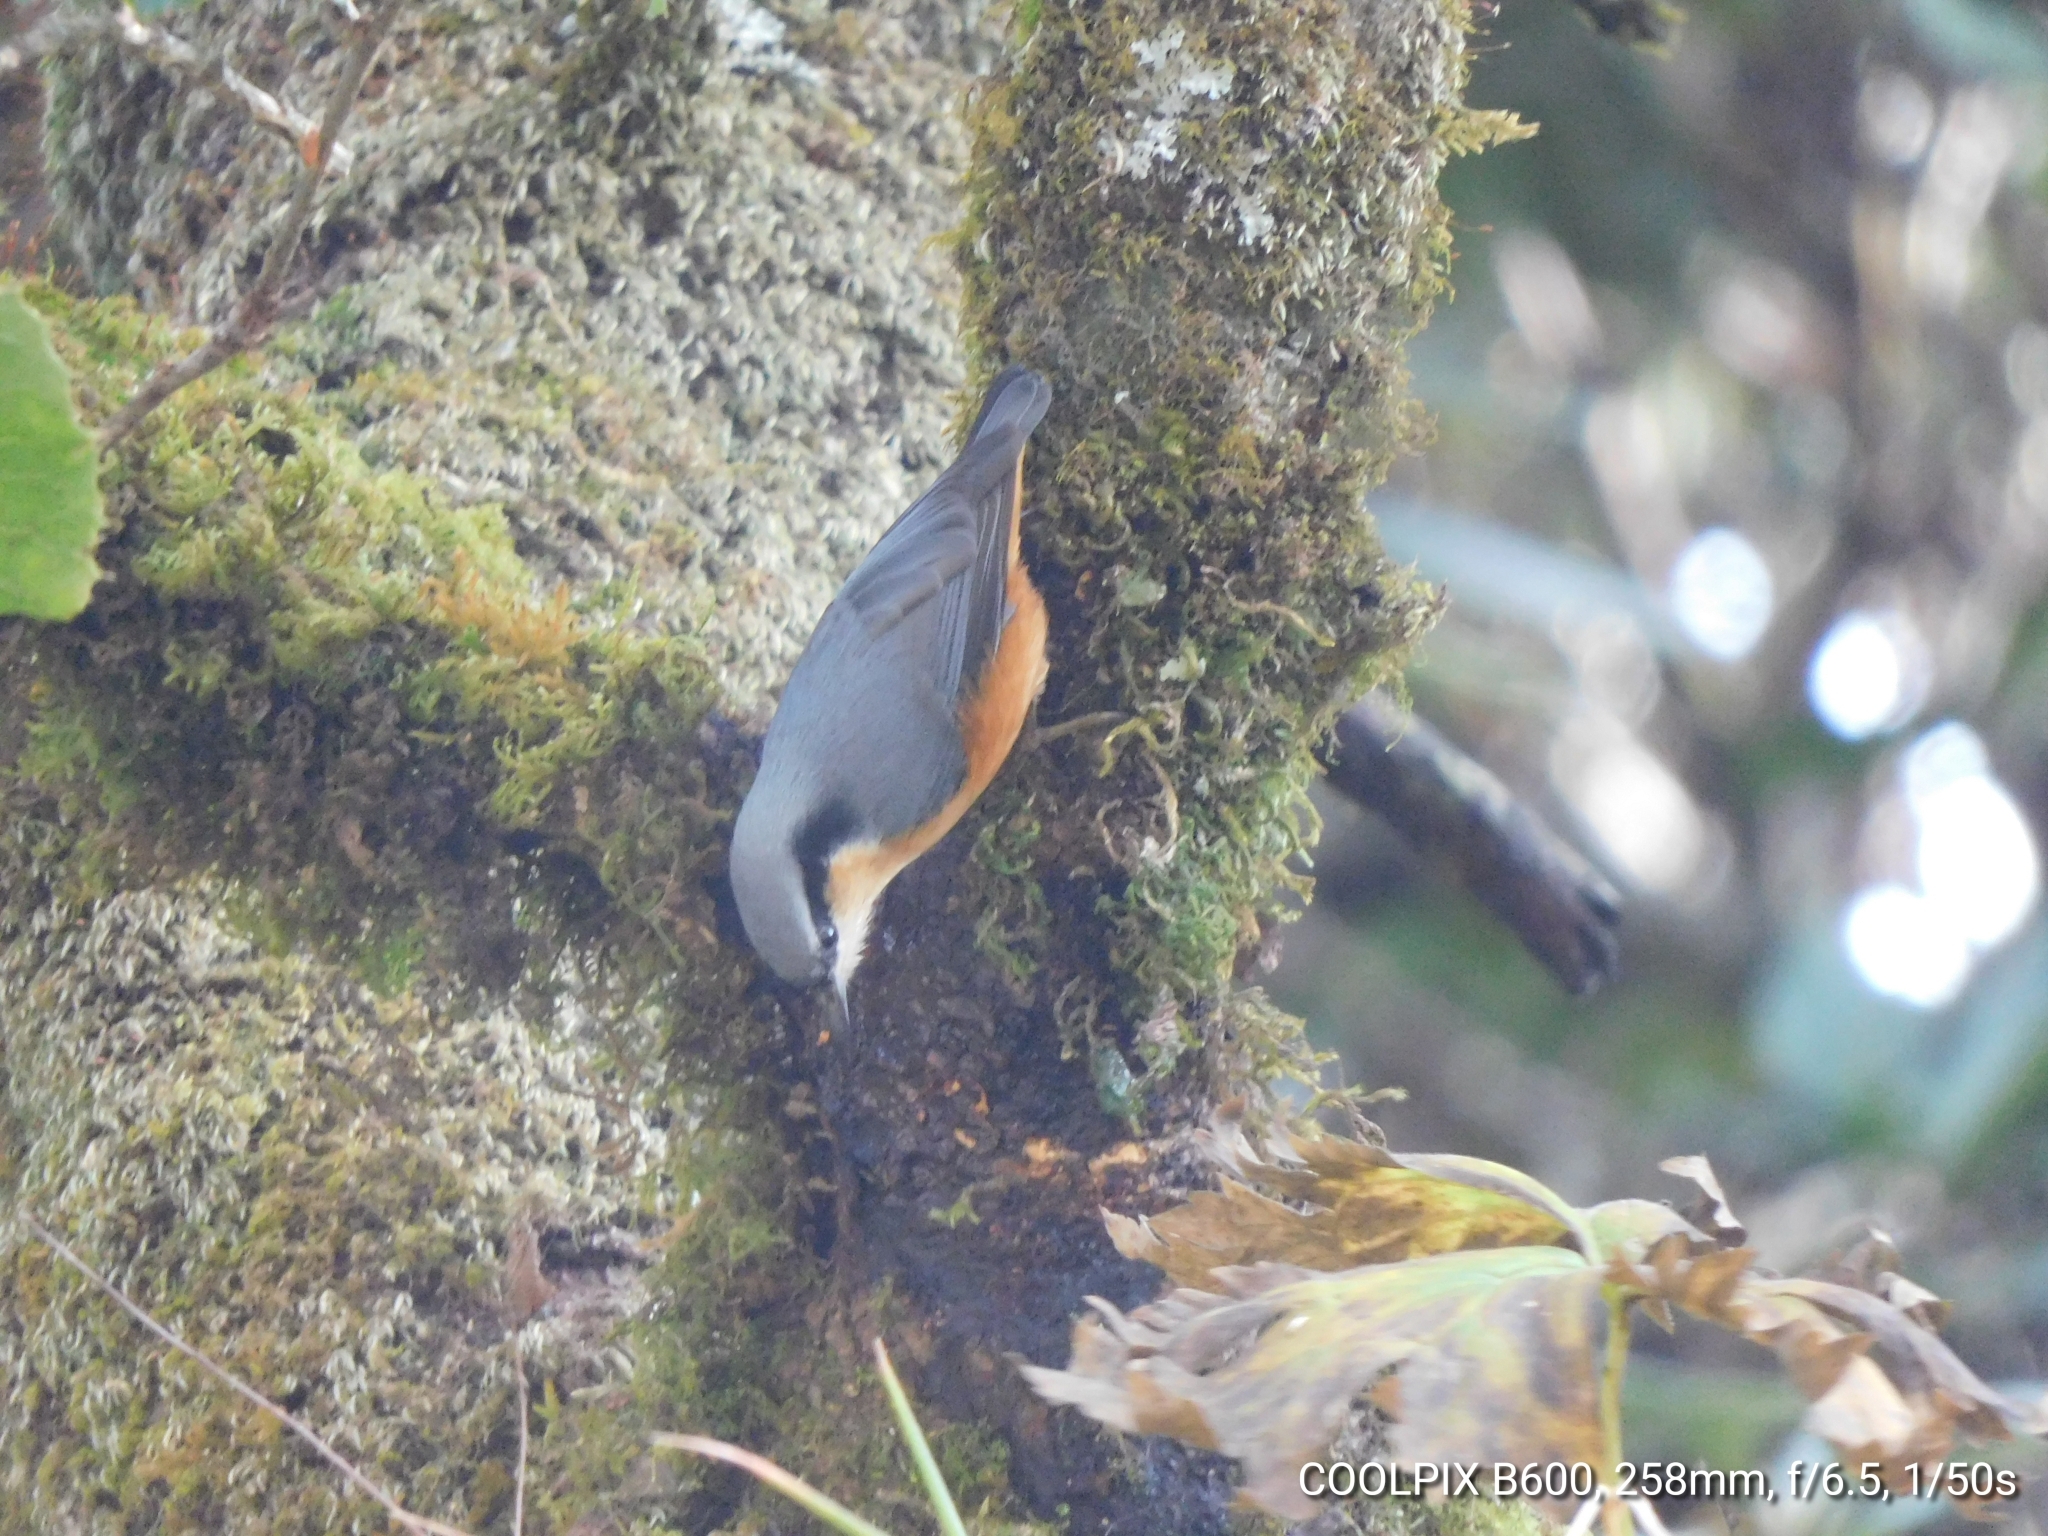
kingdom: Animalia
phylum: Chordata
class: Aves
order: Passeriformes
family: Sittidae
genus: Sitta
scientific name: Sitta himalayensis
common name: White-tailed nuthatch
